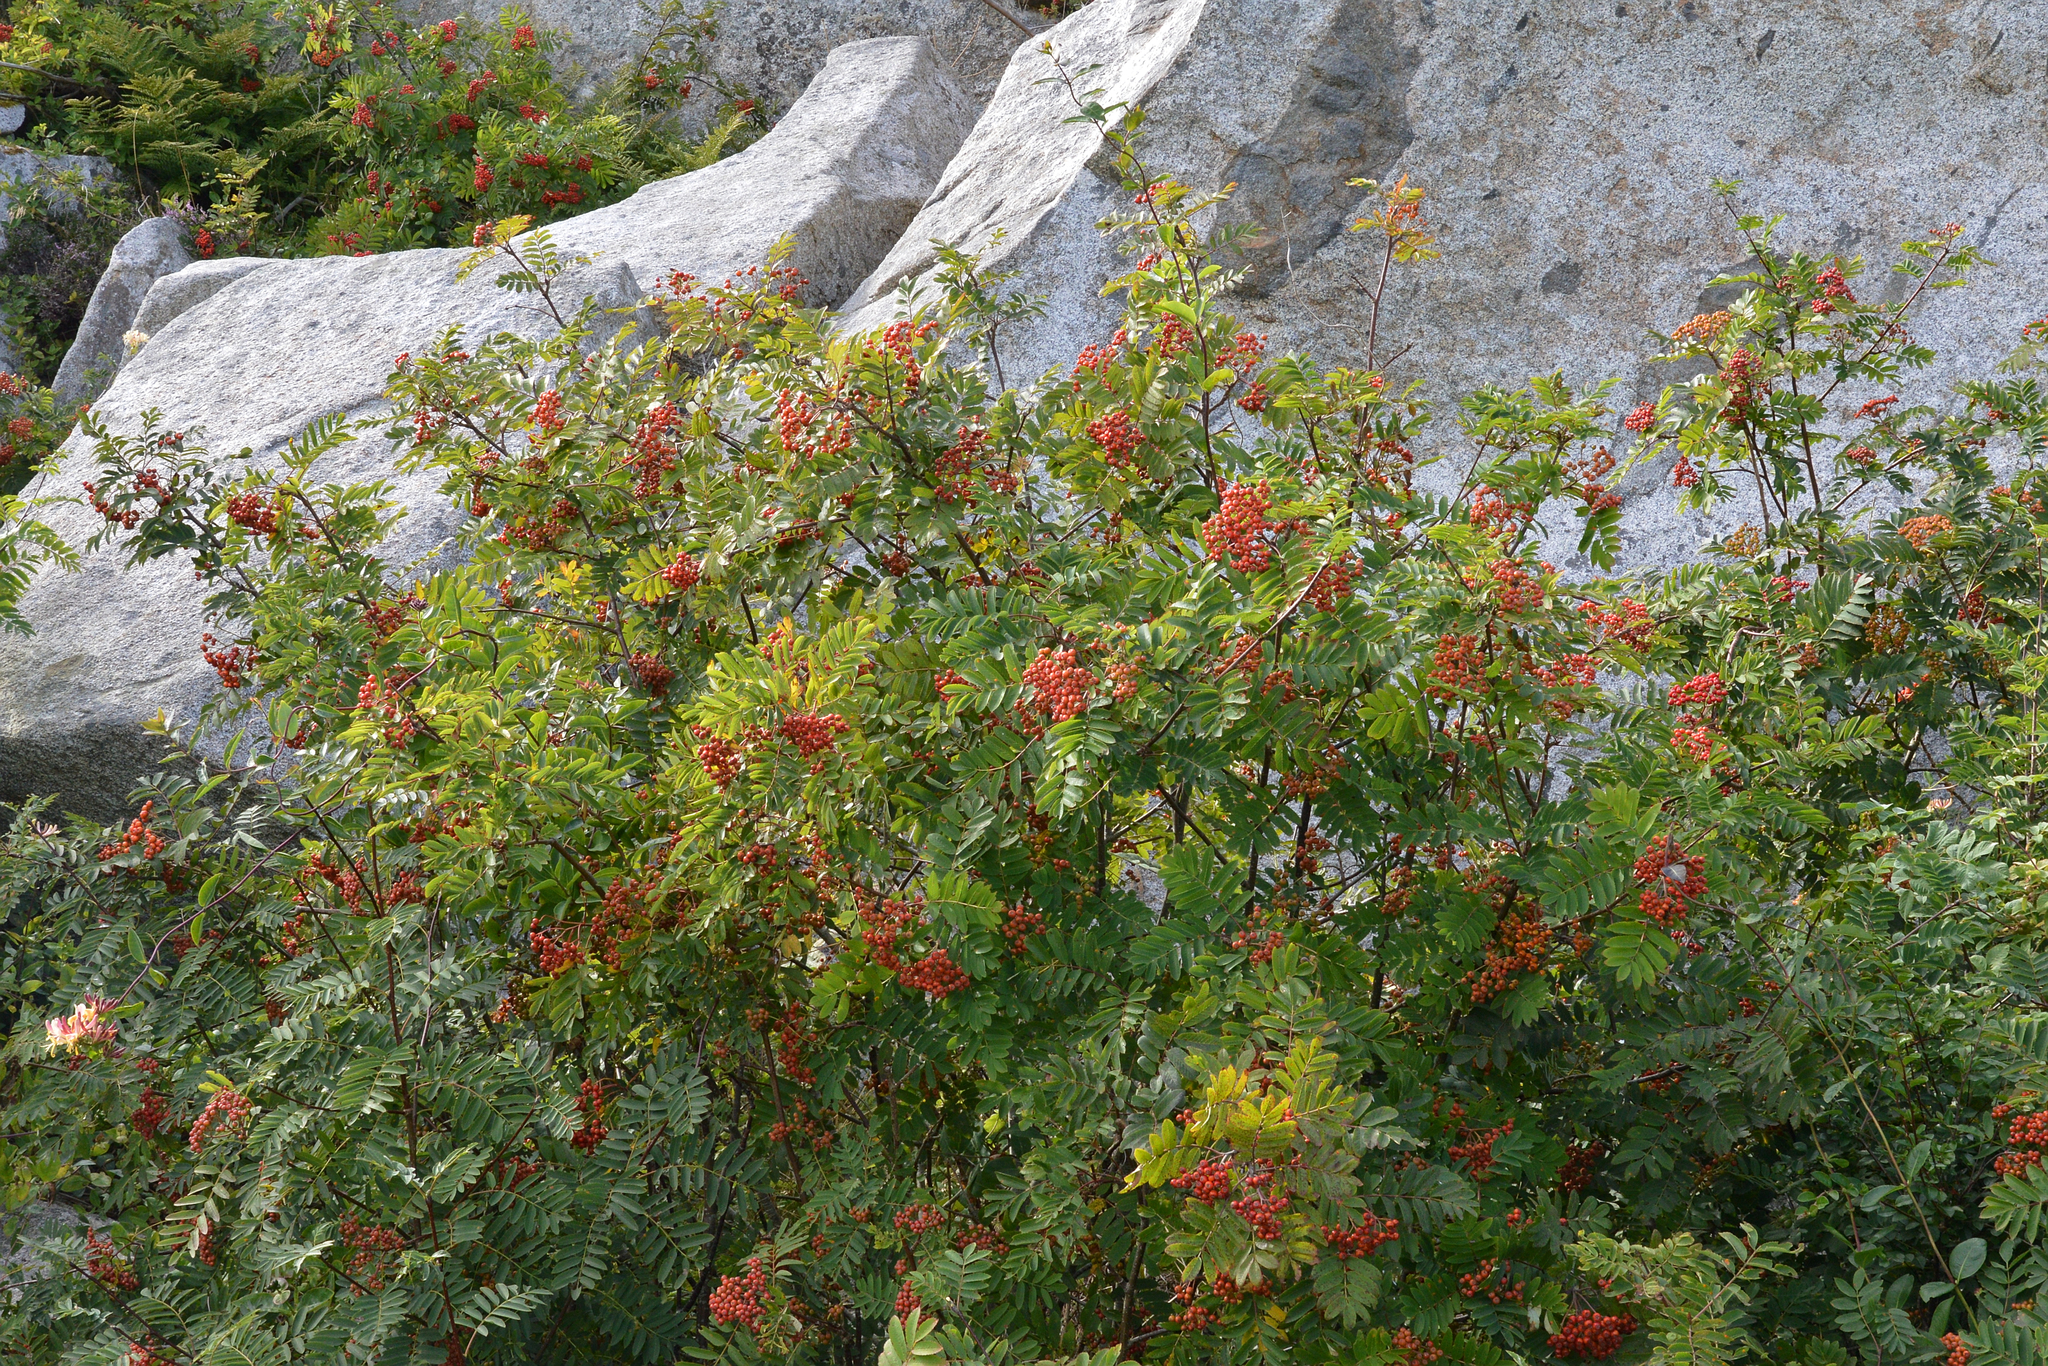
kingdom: Plantae
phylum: Tracheophyta
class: Magnoliopsida
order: Rosales
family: Rosaceae
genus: Sorbus
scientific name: Sorbus aucuparia
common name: Rowan
